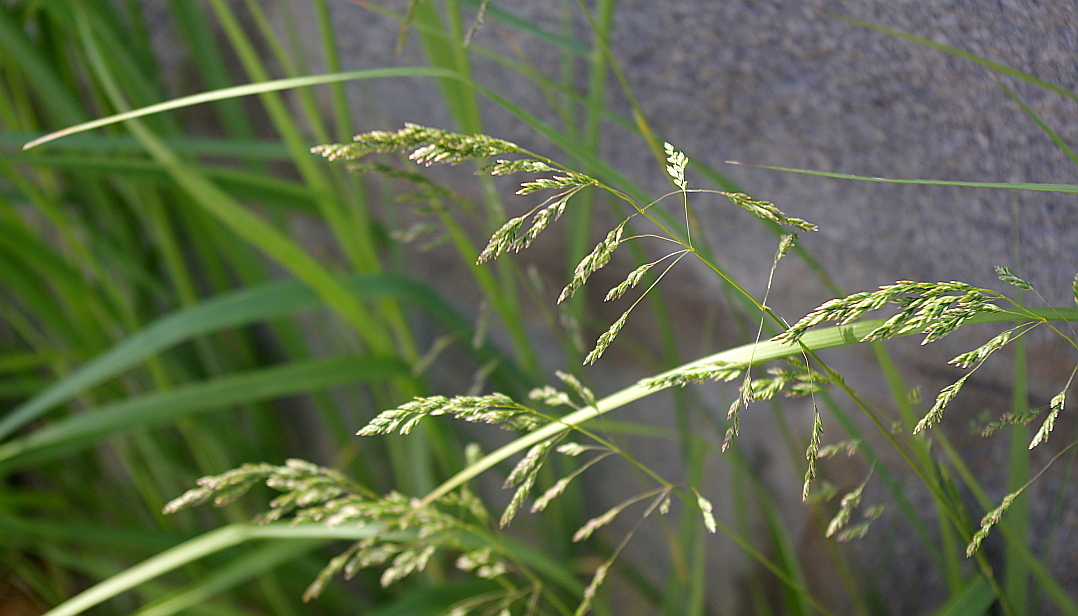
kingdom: Plantae
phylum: Tracheophyta
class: Liliopsida
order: Poales
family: Poaceae
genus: Poa
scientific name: Poa angustifolia
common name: Narrow-leaved meadow-grass
